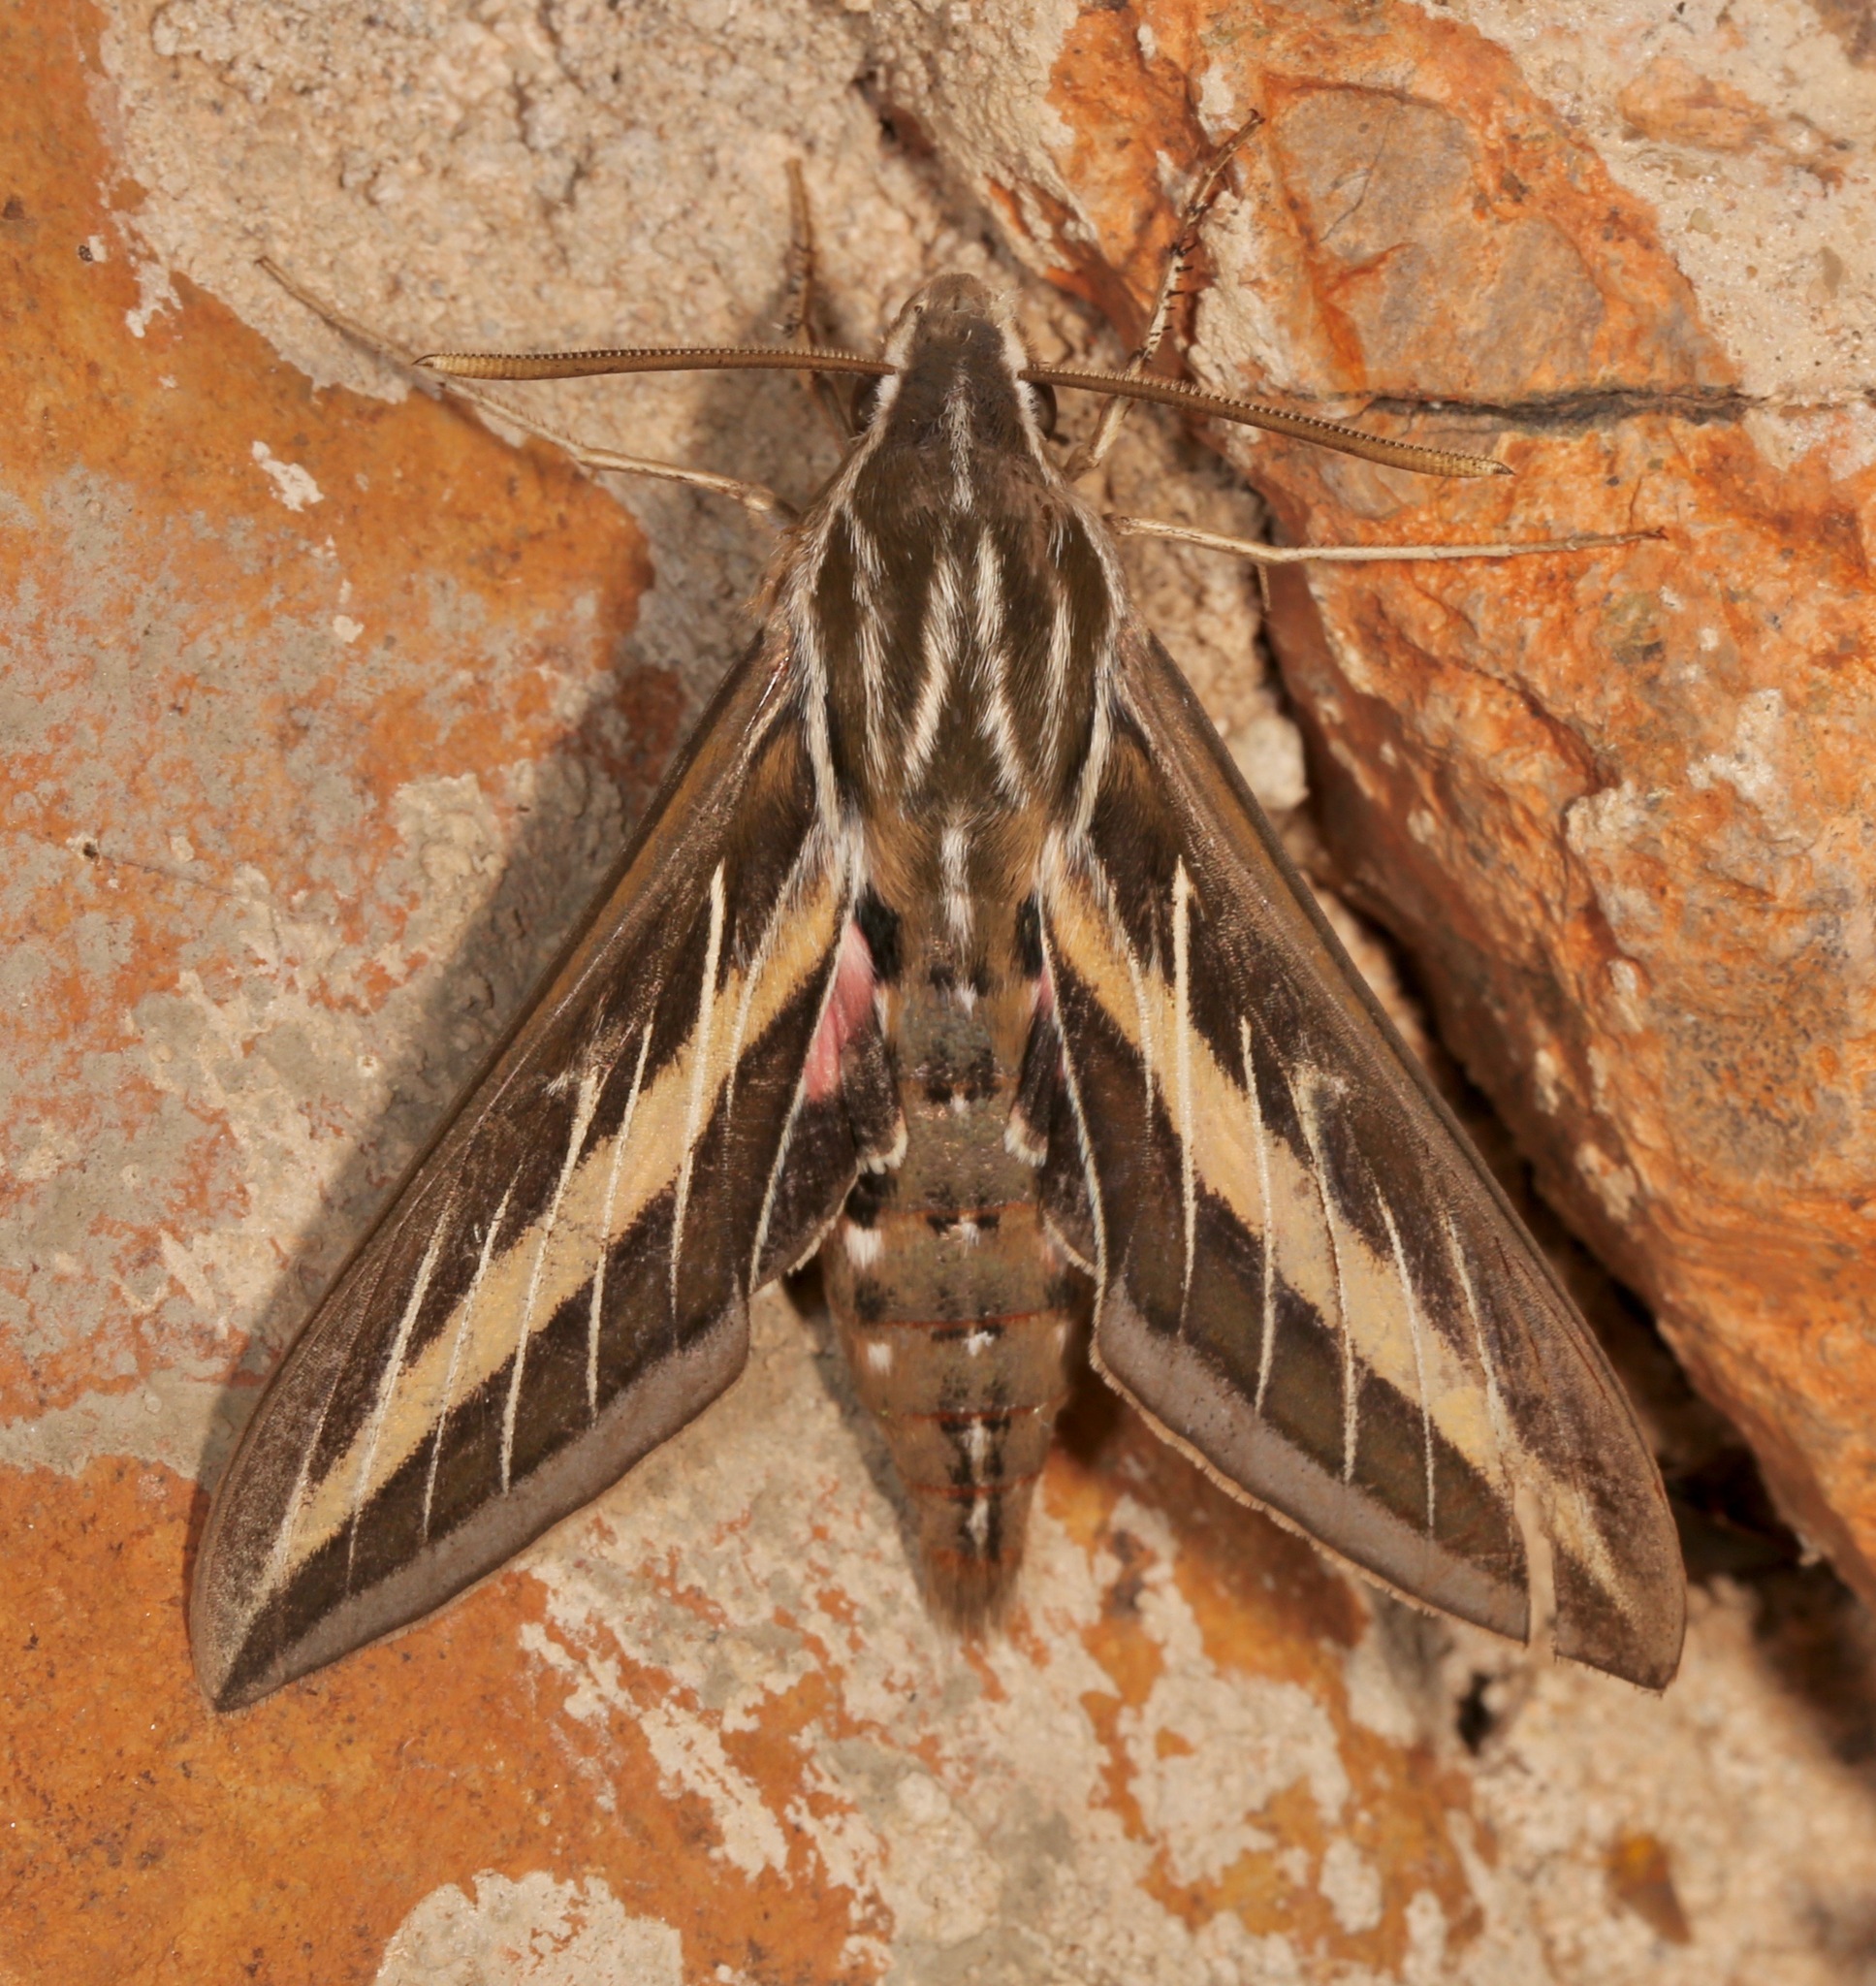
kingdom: Animalia
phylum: Arthropoda
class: Insecta
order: Lepidoptera
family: Sphingidae
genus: Hyles
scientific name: Hyles lineata
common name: White-lined sphinx
